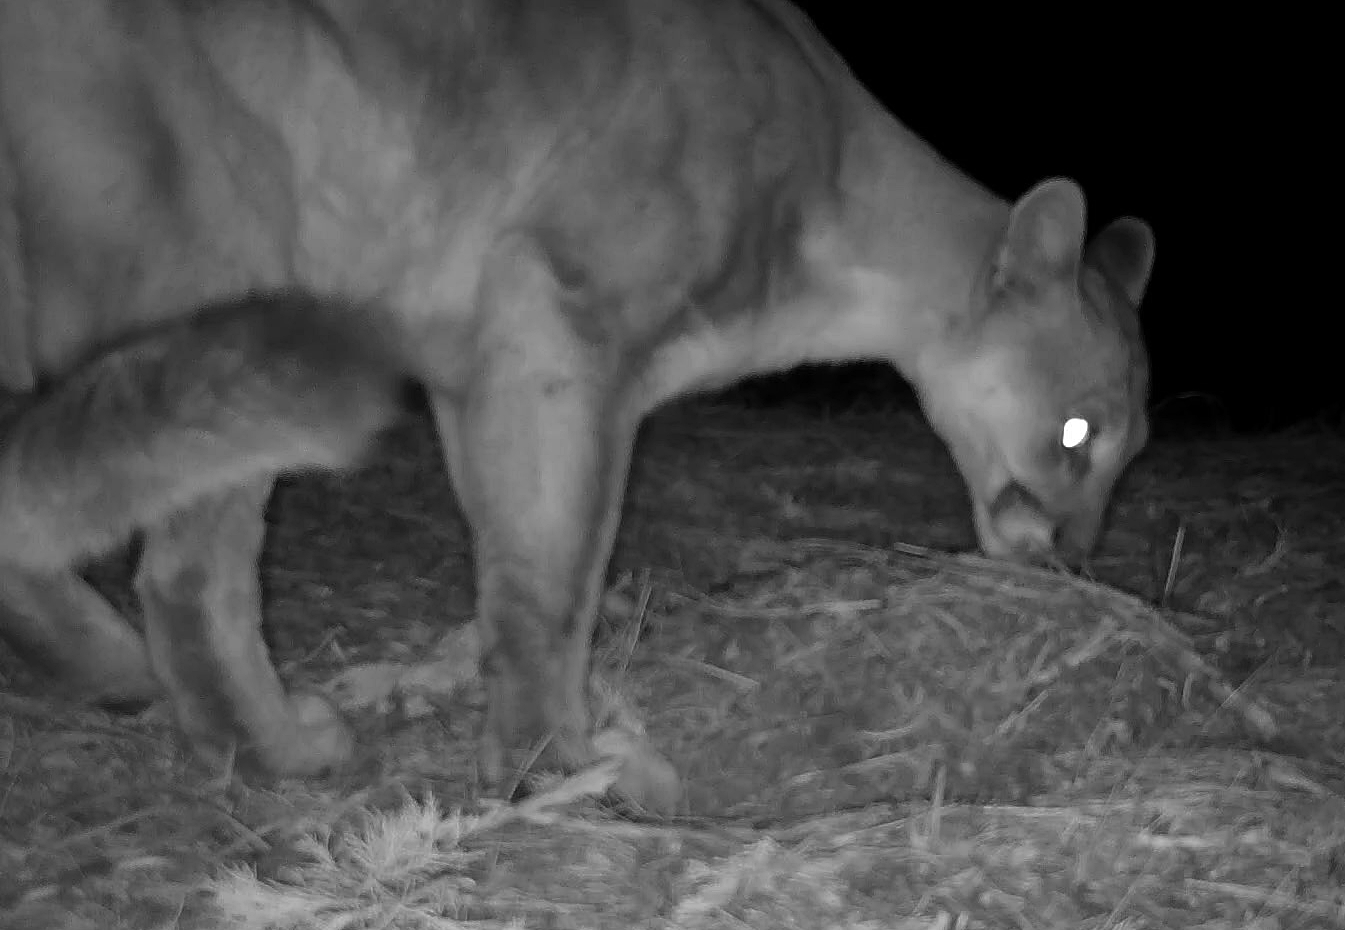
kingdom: Animalia
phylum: Chordata
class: Mammalia
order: Carnivora
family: Felidae
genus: Puma
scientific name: Puma concolor
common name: Puma
